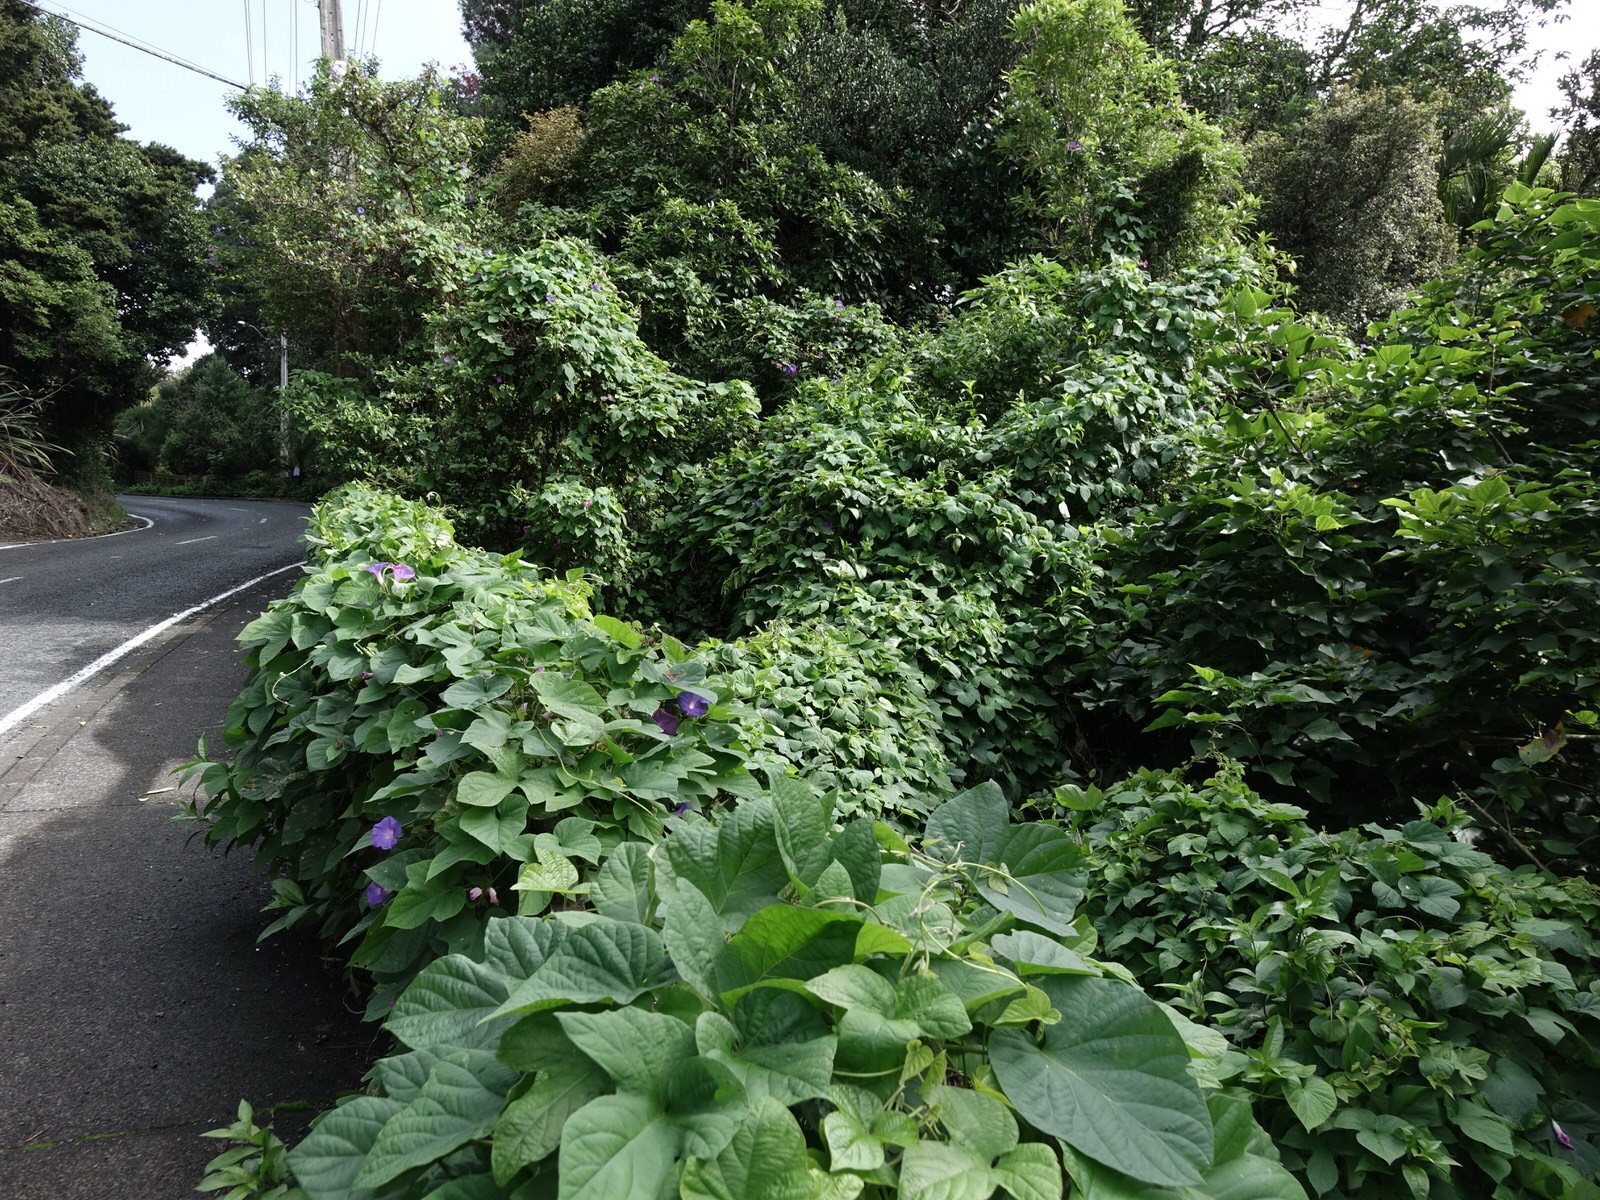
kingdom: Plantae
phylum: Tracheophyta
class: Magnoliopsida
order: Solanales
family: Convolvulaceae
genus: Ipomoea
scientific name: Ipomoea indica
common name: Blue dawnflower
